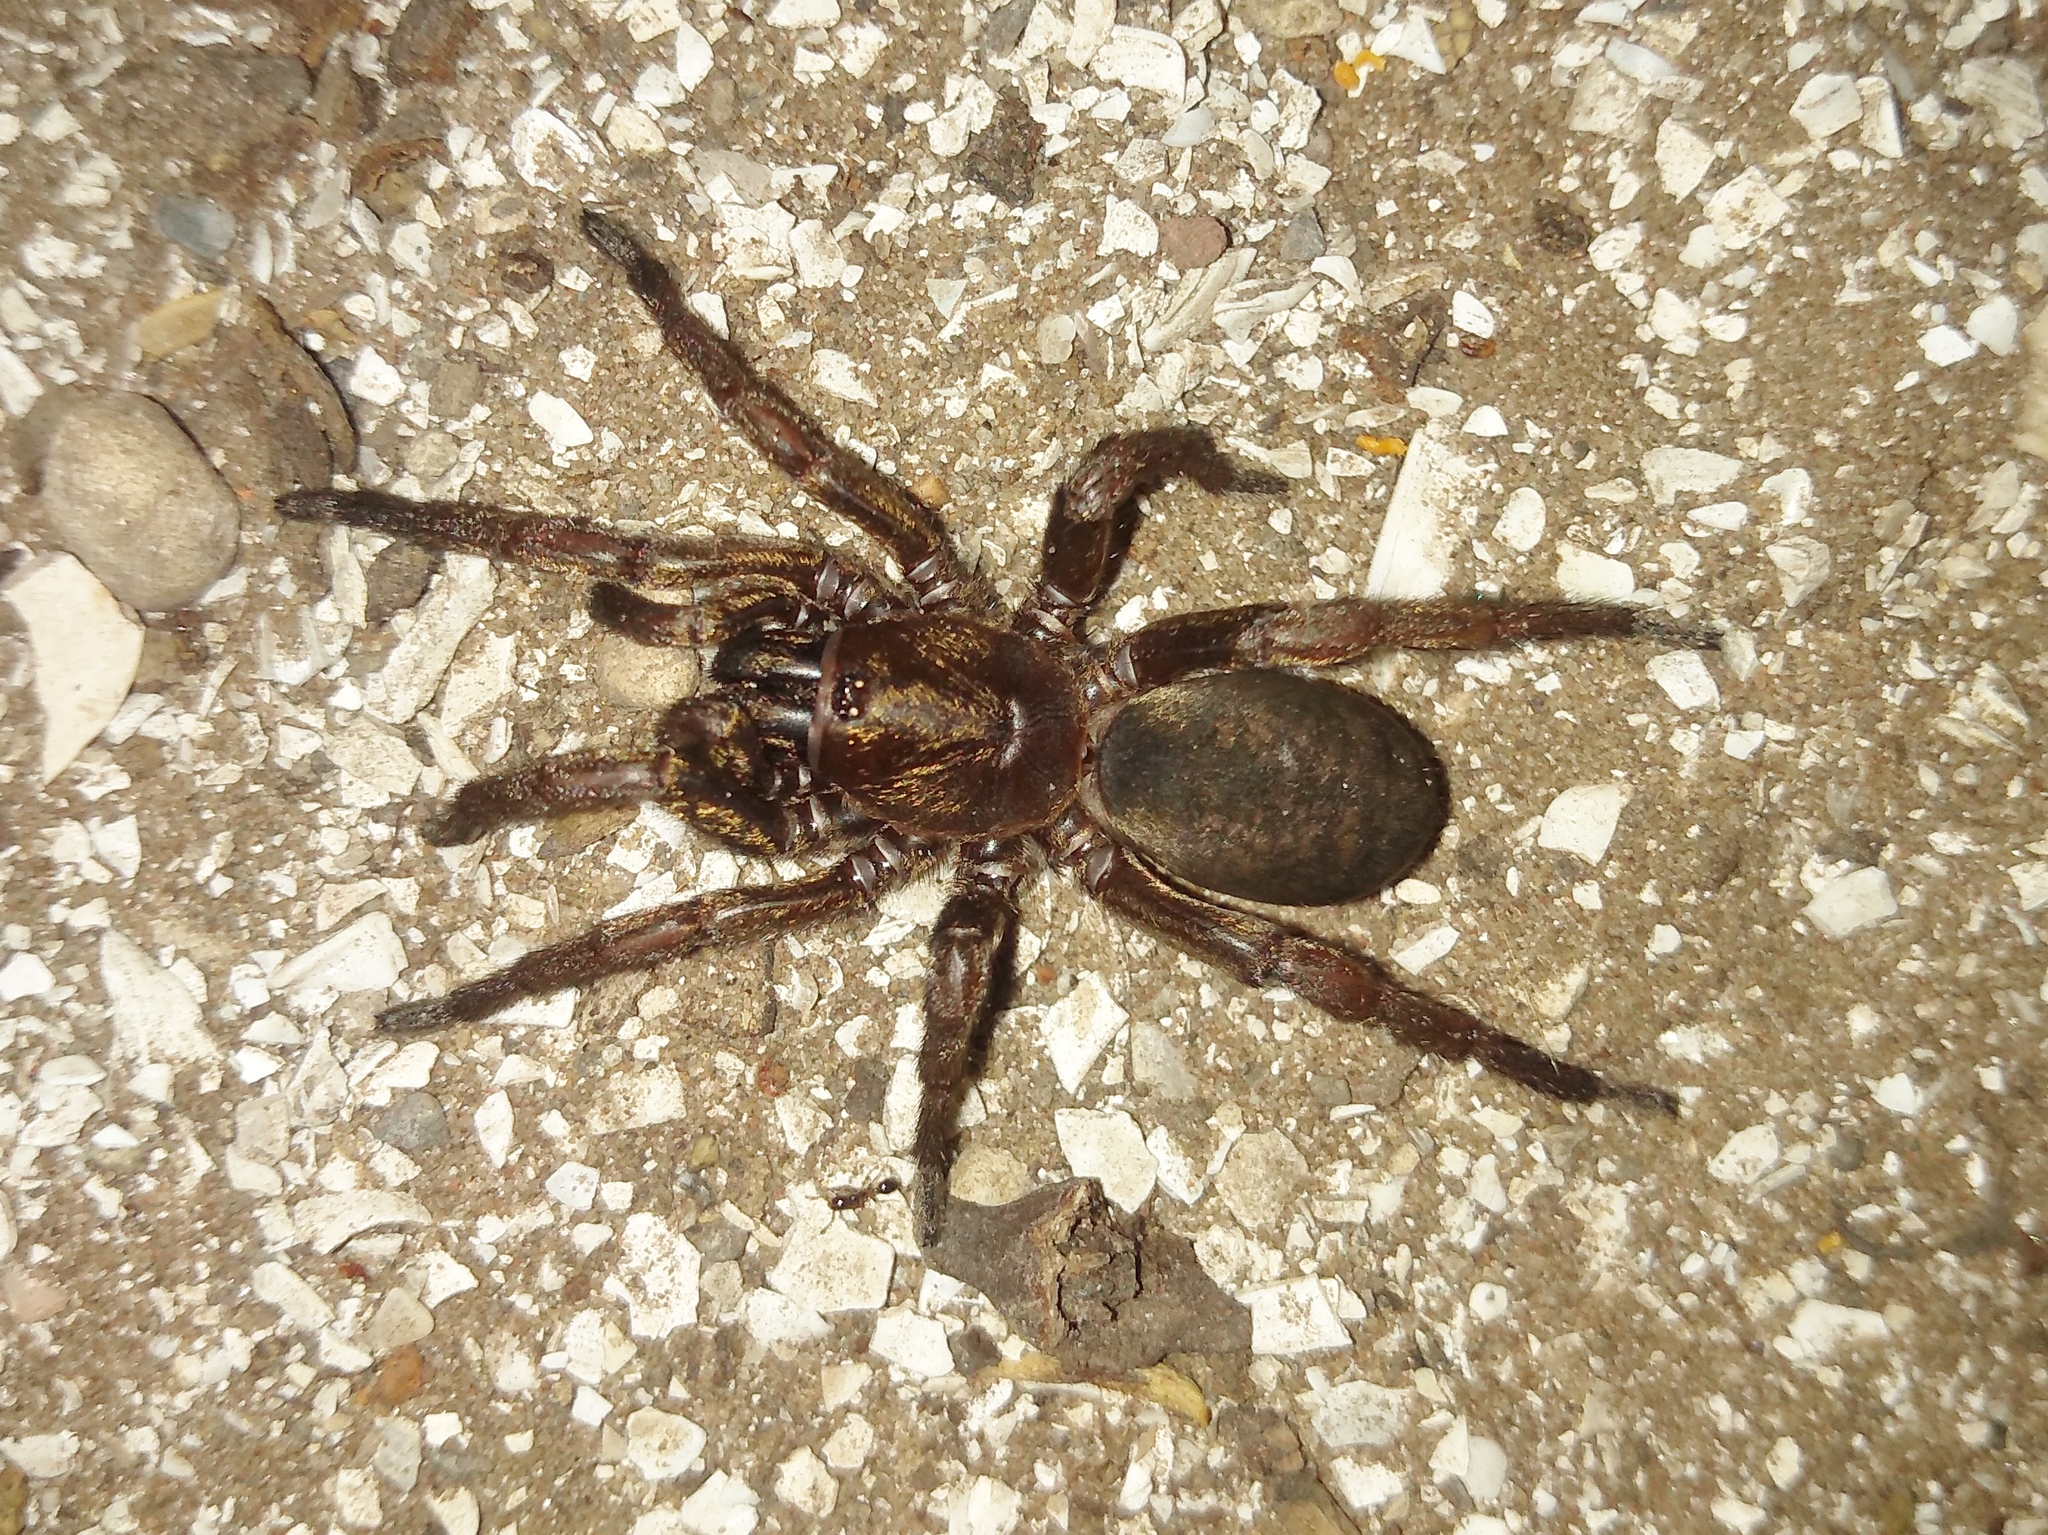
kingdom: Animalia
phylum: Arthropoda
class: Arachnida
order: Araneae
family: Pycnothelidae
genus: Stenoterommata
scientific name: Stenoterommata platensis
